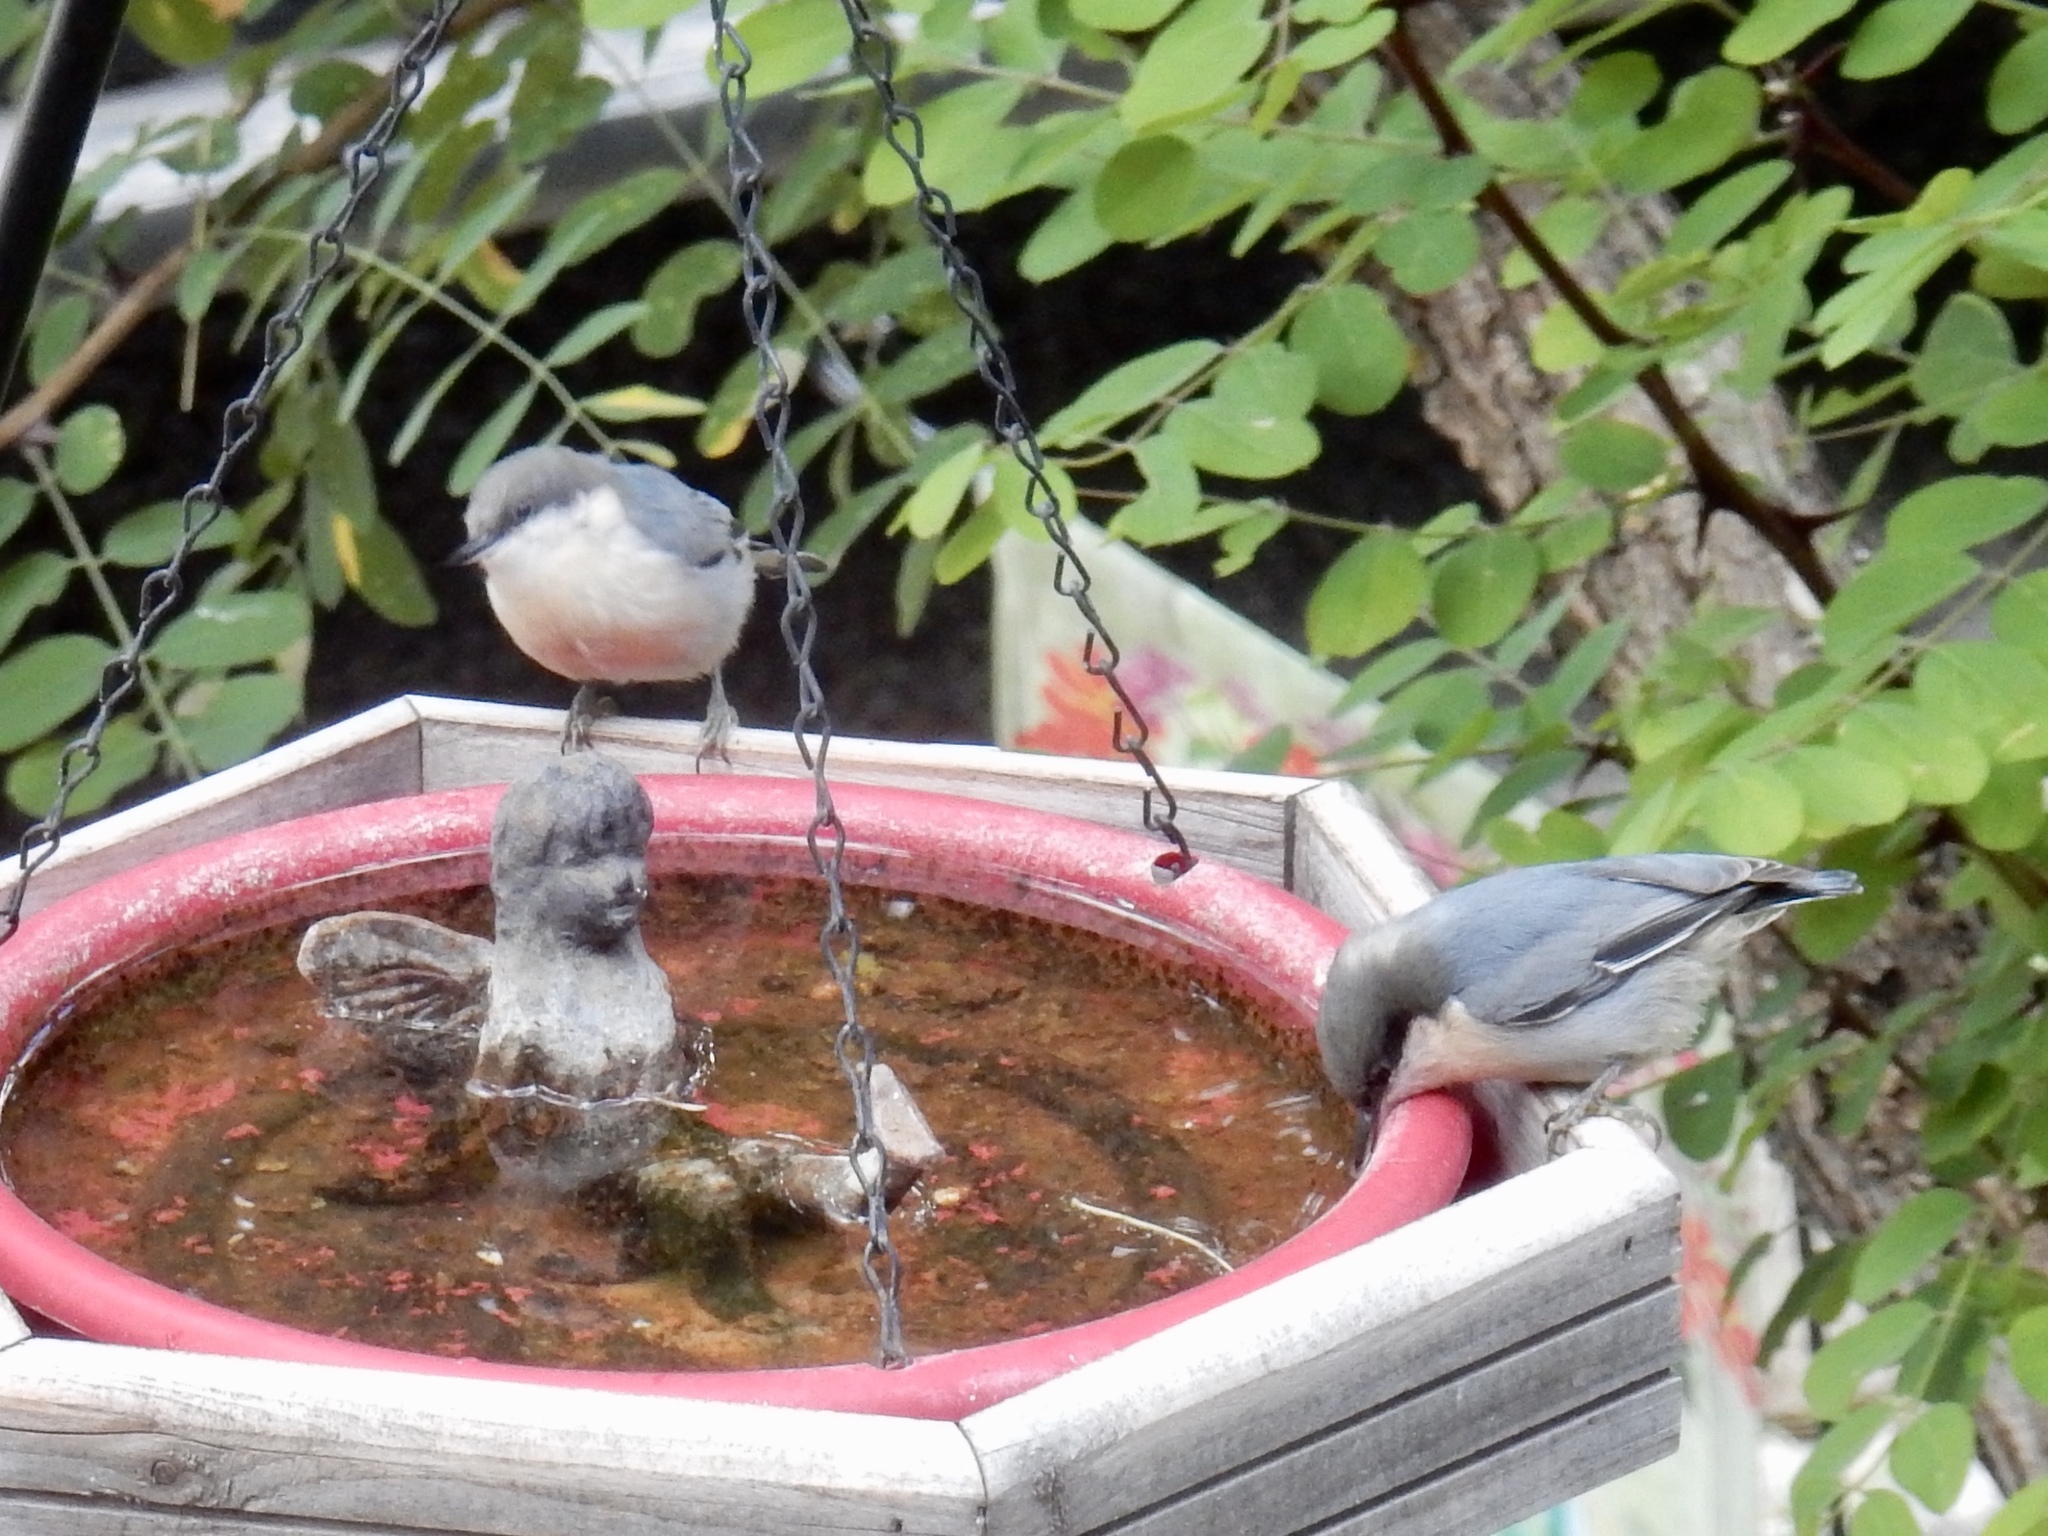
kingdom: Animalia
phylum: Chordata
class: Aves
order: Passeriformes
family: Sittidae
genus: Sitta
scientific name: Sitta pygmaea
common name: Pygmy nuthatch
